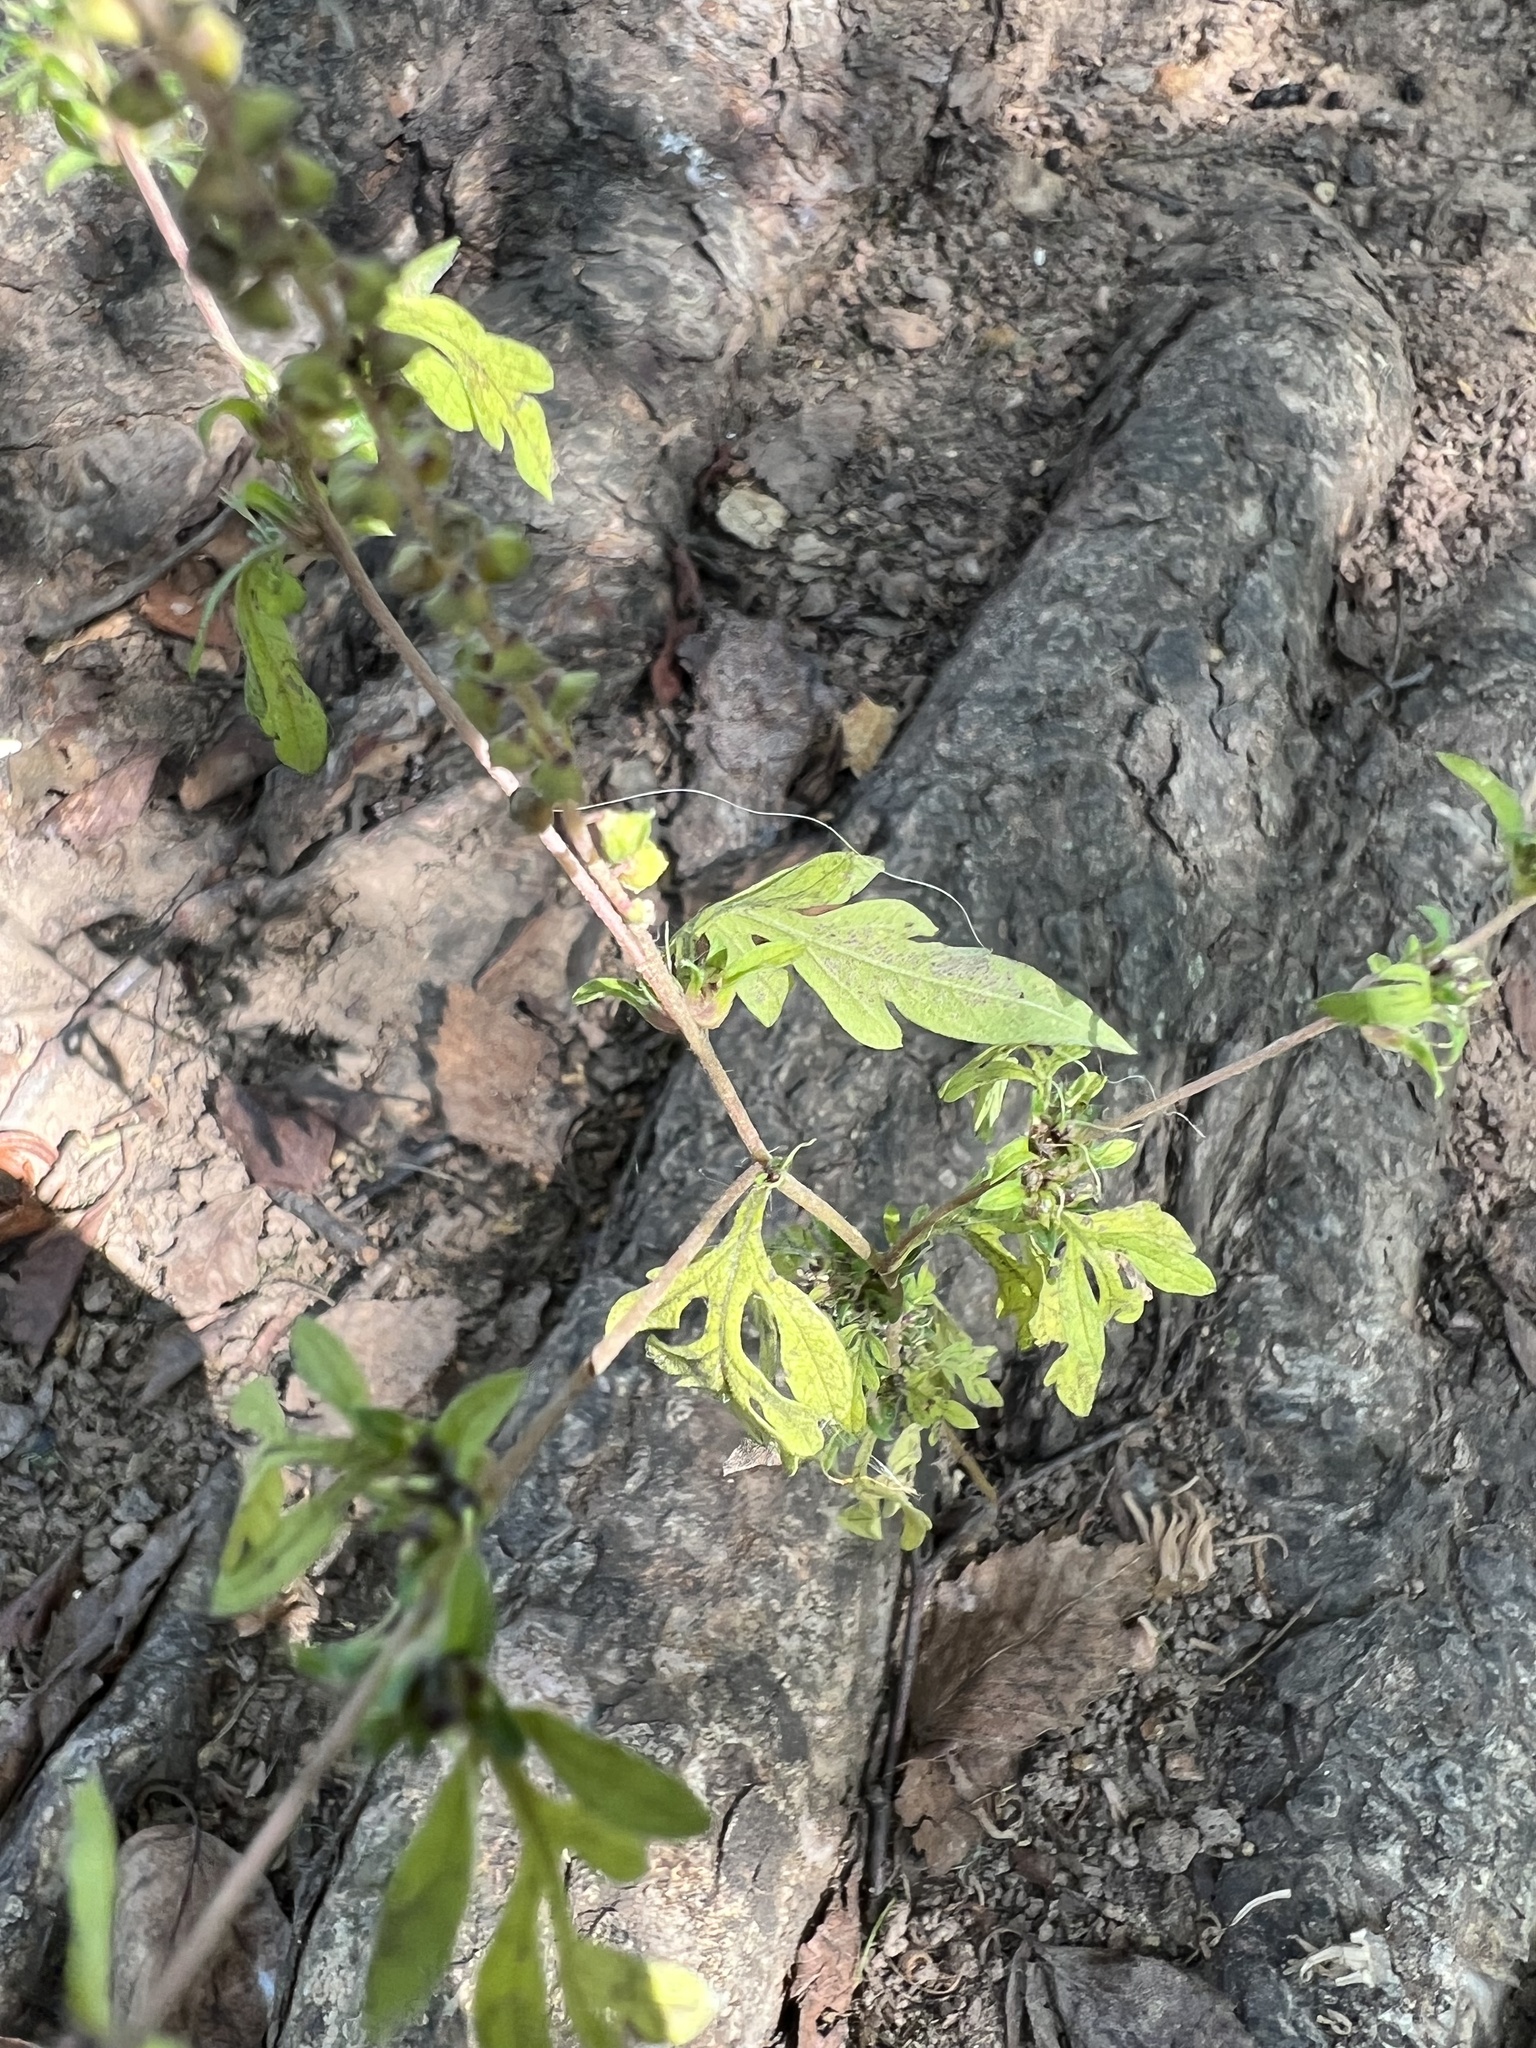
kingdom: Plantae
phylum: Tracheophyta
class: Magnoliopsida
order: Asterales
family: Asteraceae
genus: Ambrosia
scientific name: Ambrosia artemisiifolia
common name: Annual ragweed
